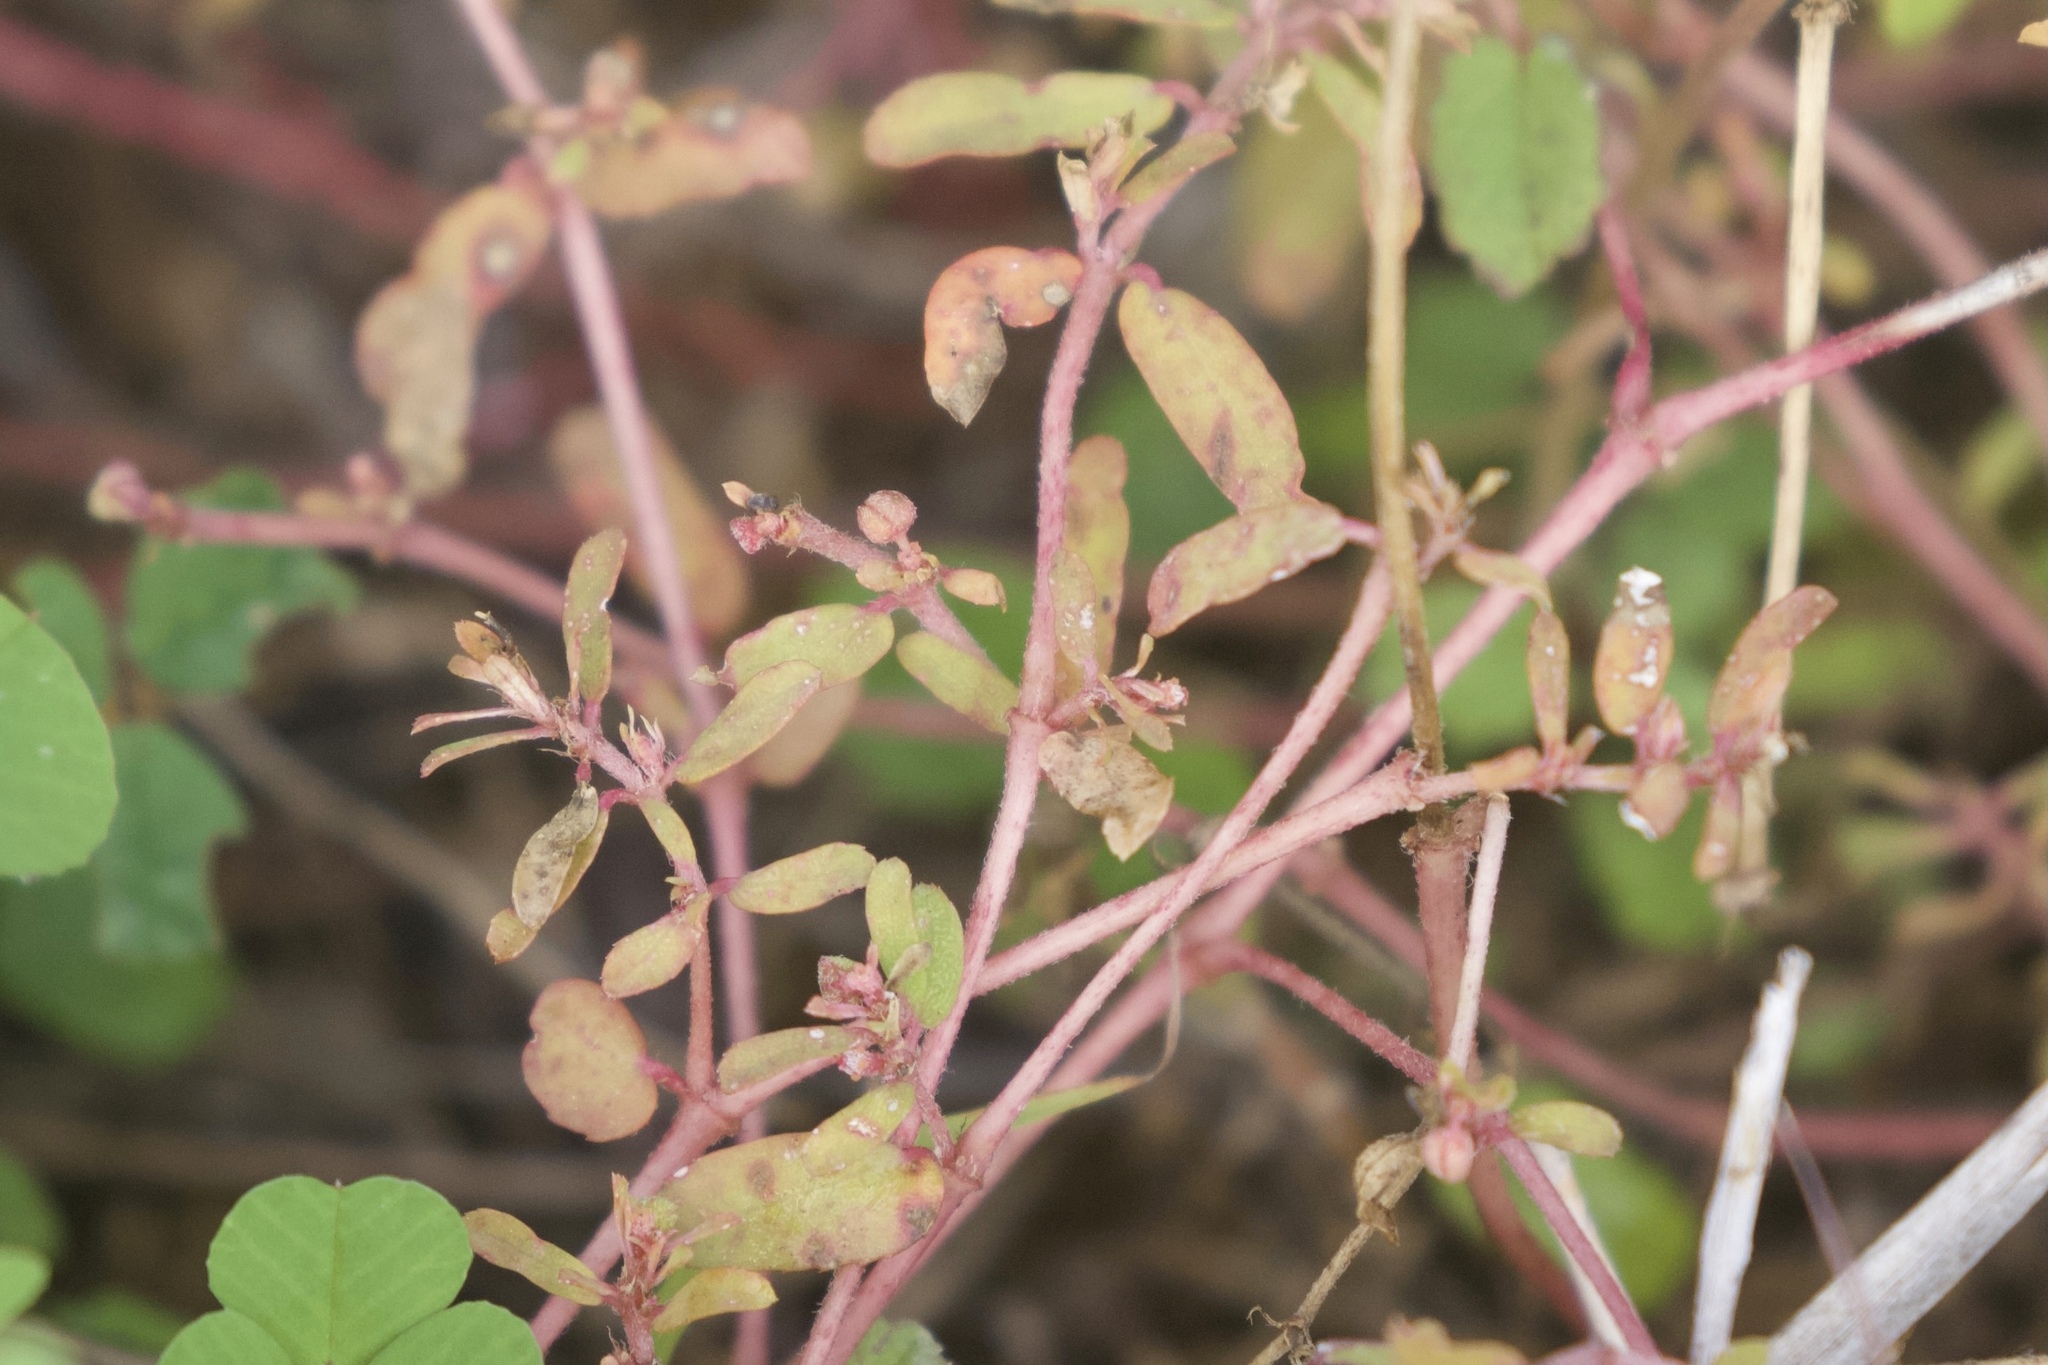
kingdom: Plantae
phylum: Tracheophyta
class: Magnoliopsida
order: Malpighiales
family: Euphorbiaceae
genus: Euphorbia
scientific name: Euphorbia maculata
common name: Spotted spurge
